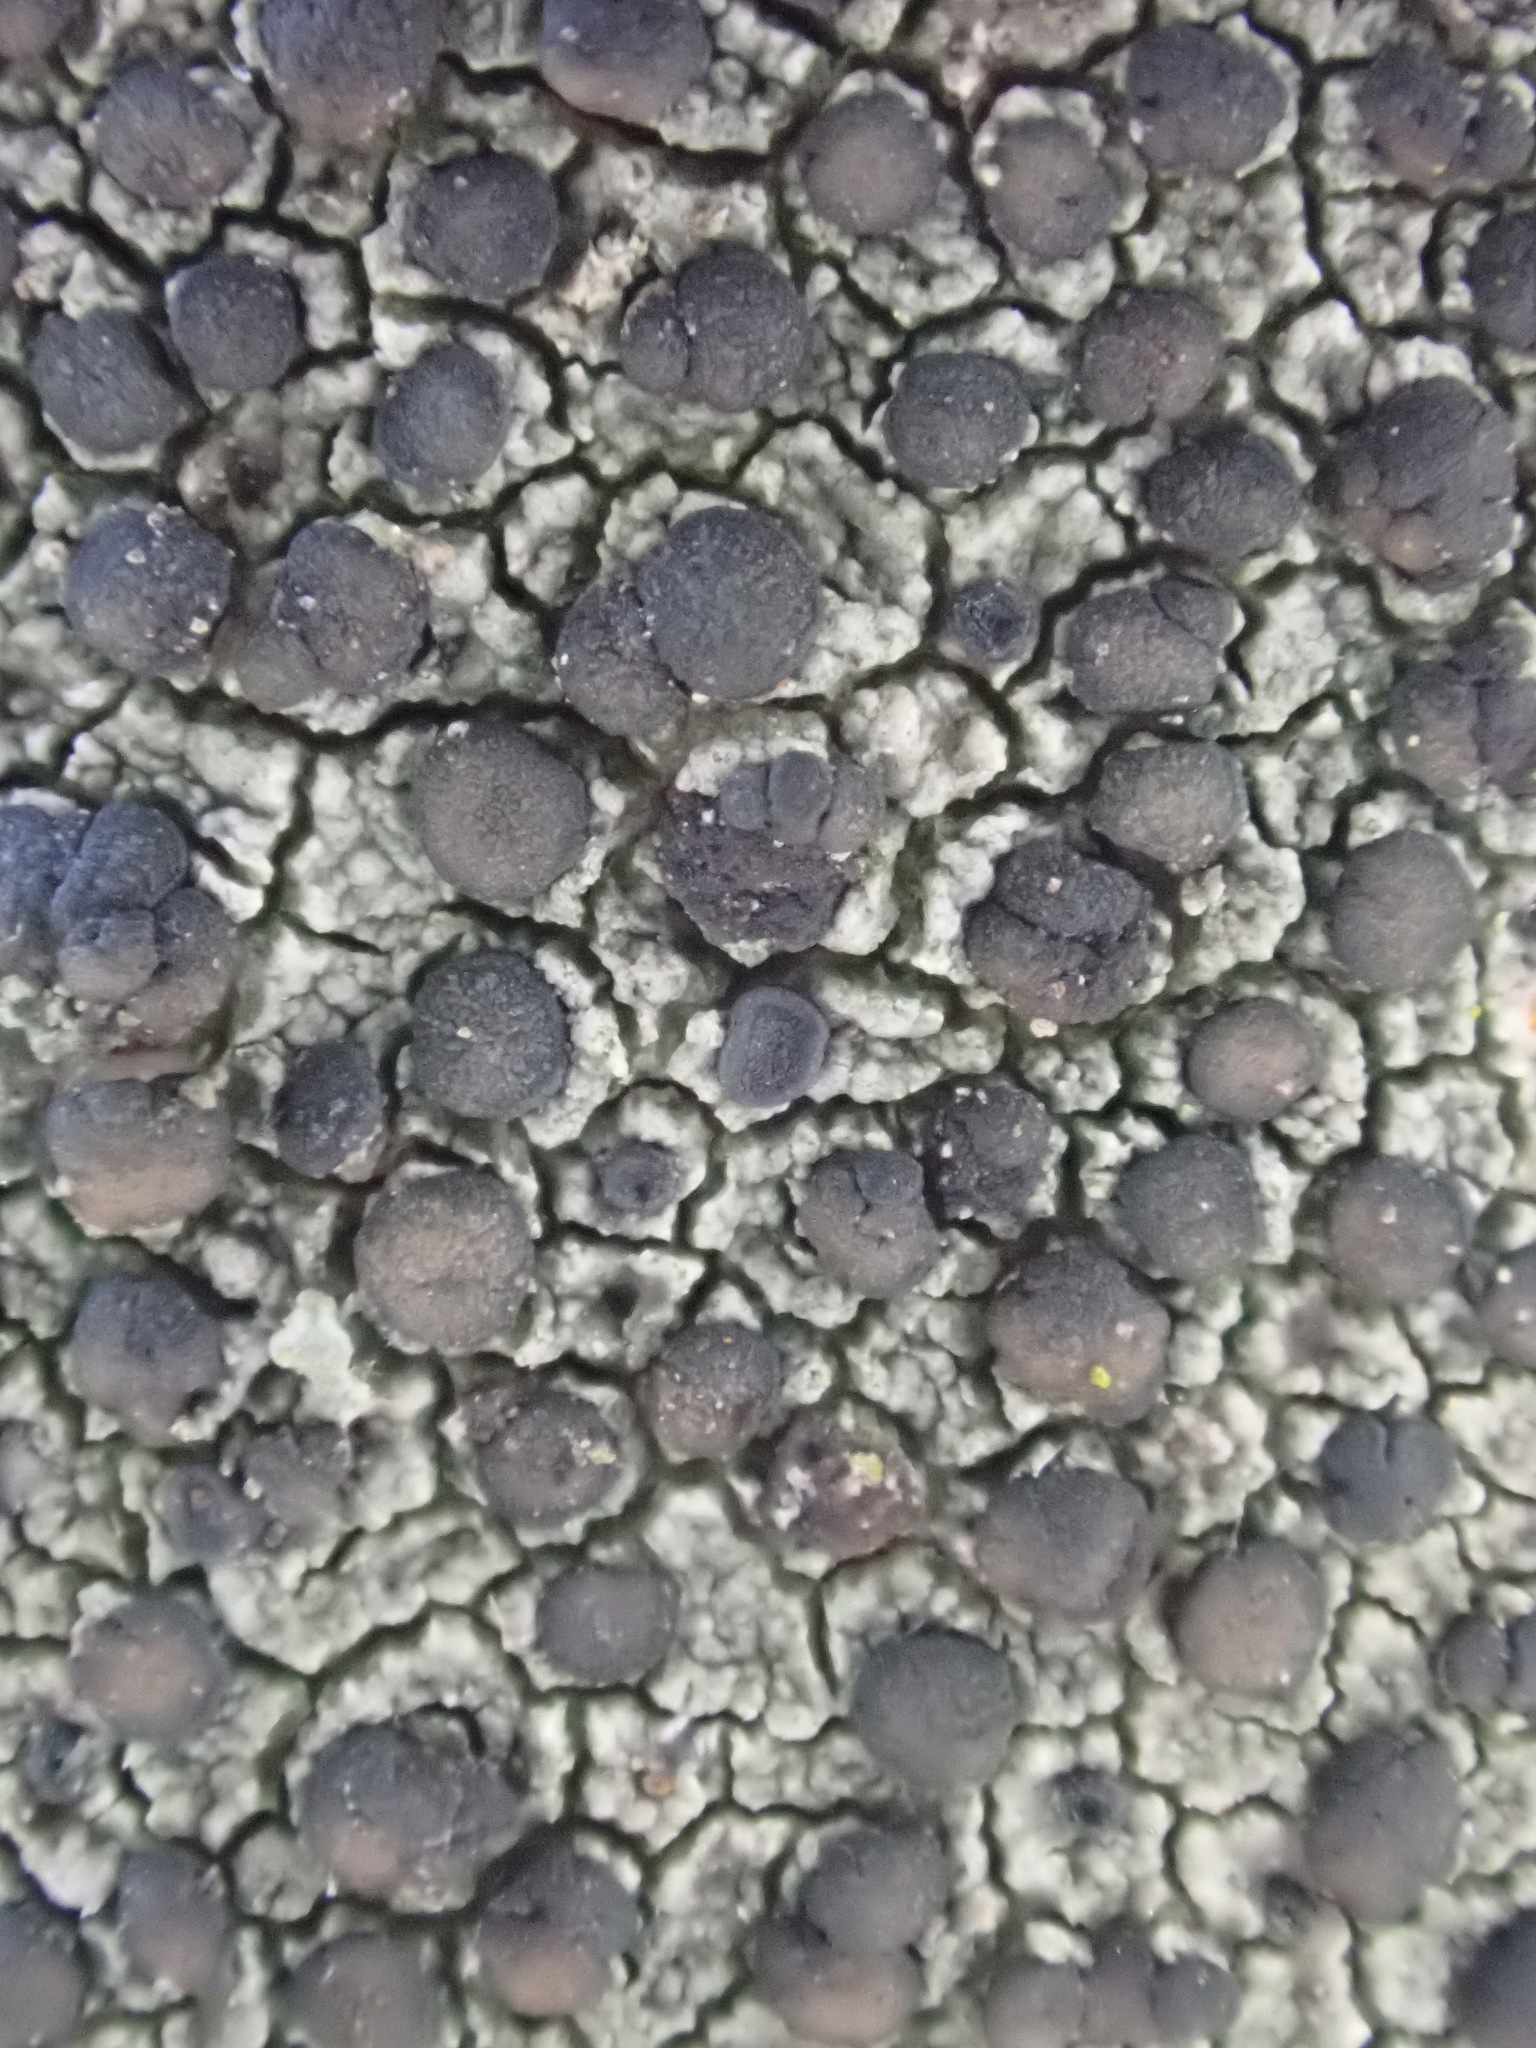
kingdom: Fungi
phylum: Ascomycota
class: Lecanoromycetes
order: Lecanorales
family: Lecanoraceae
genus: Lecidella
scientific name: Lecidella elaeochroma
